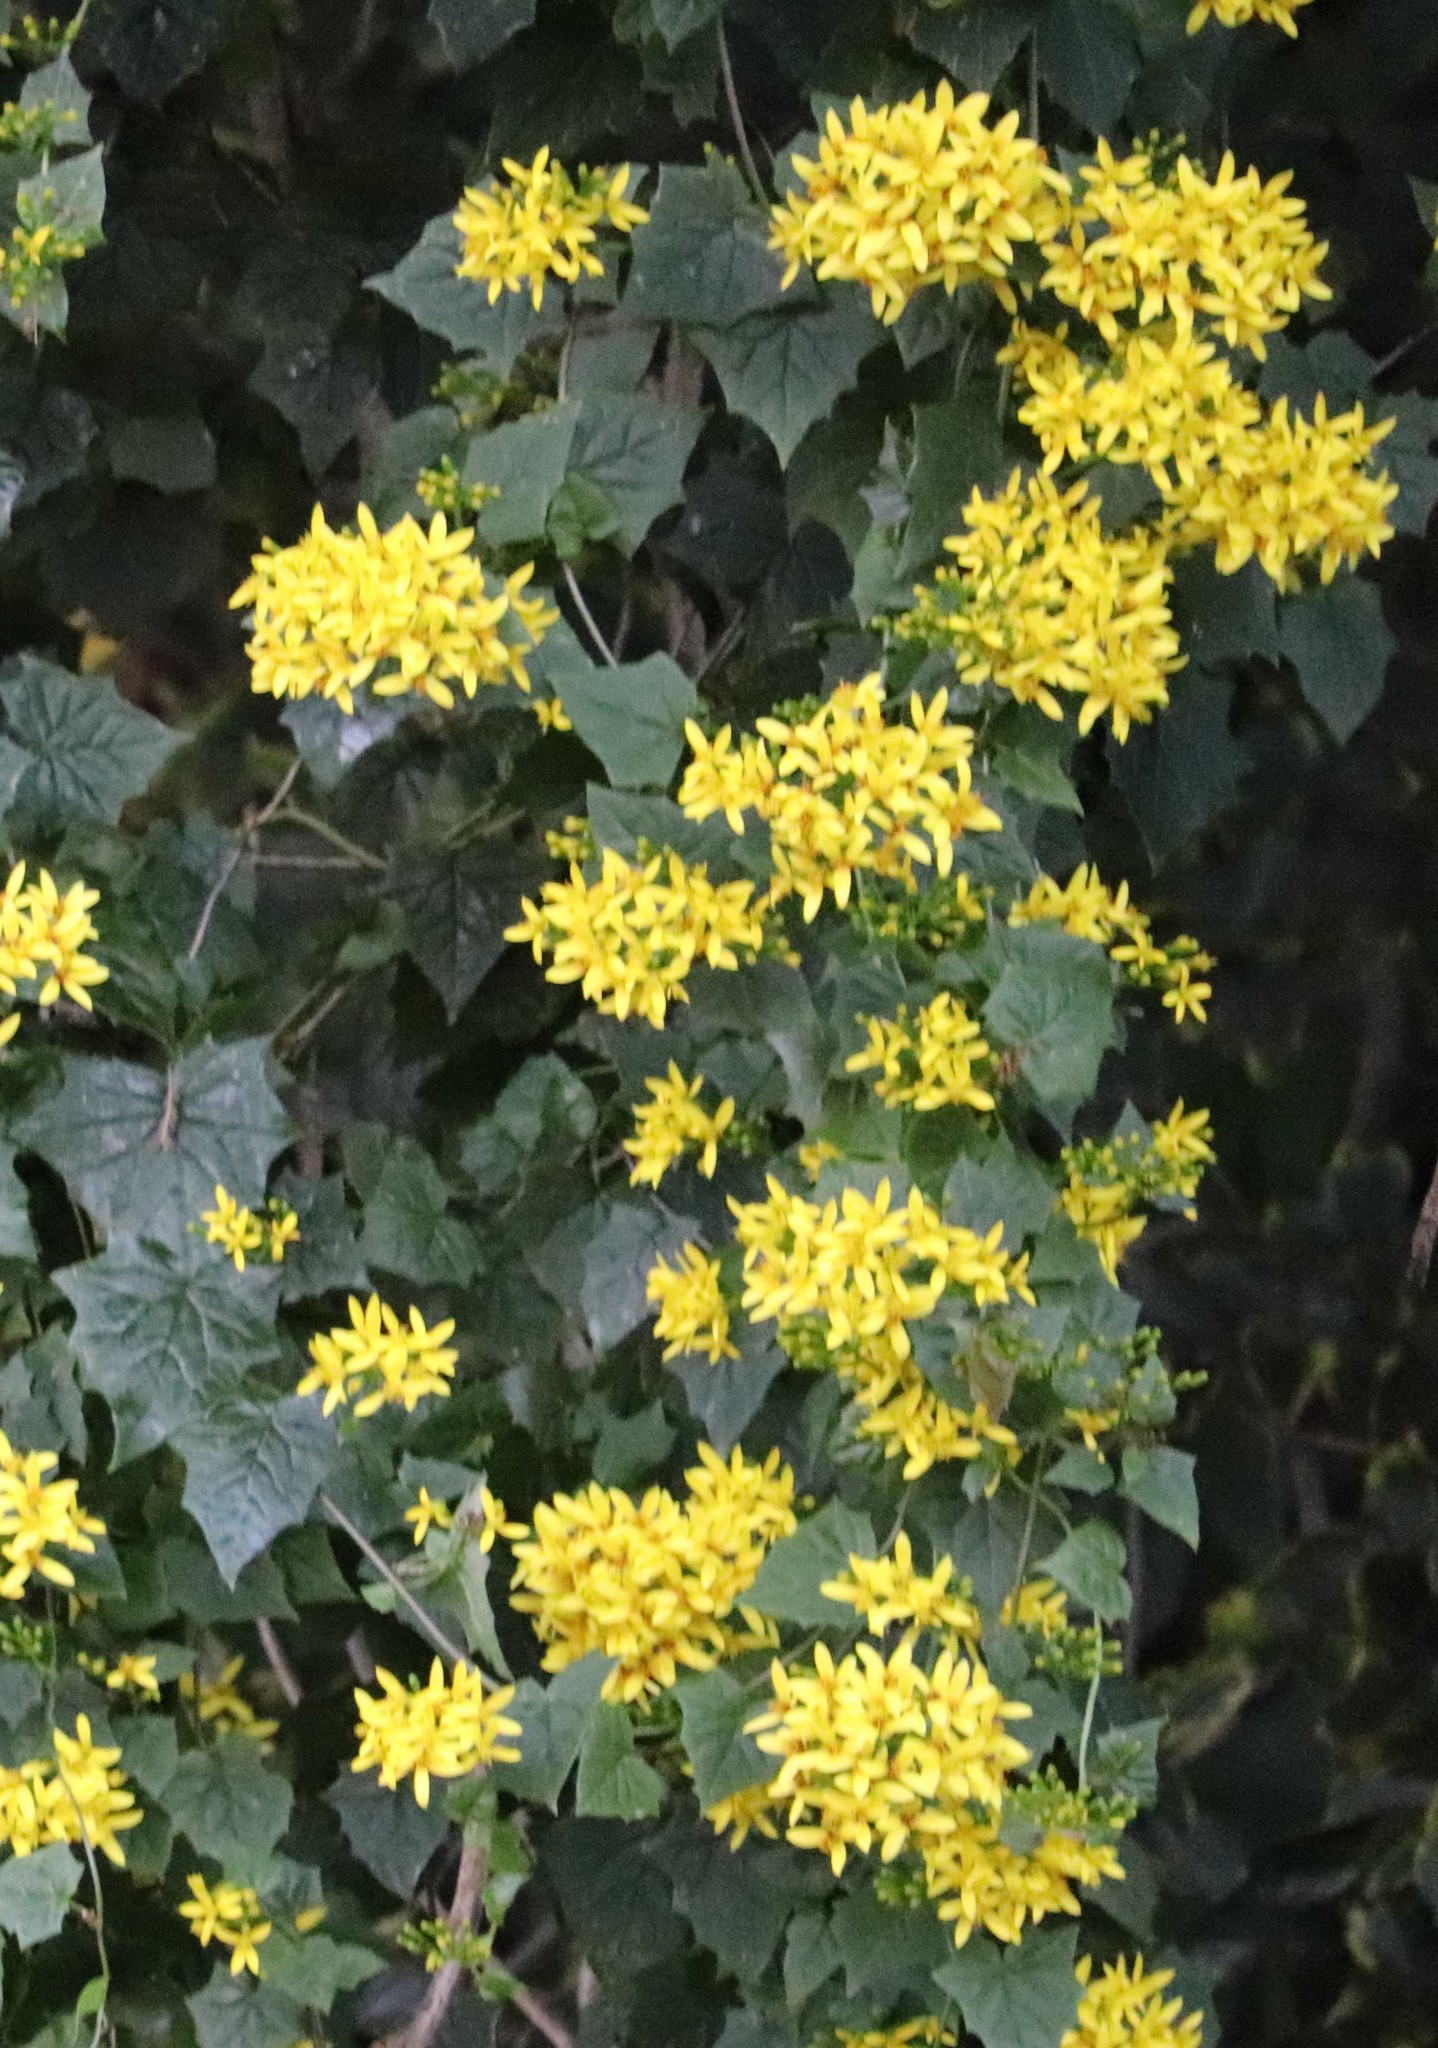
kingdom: Plantae
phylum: Tracheophyta
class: Magnoliopsida
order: Asterales
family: Asteraceae
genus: Senecio
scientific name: Senecio tamoides
